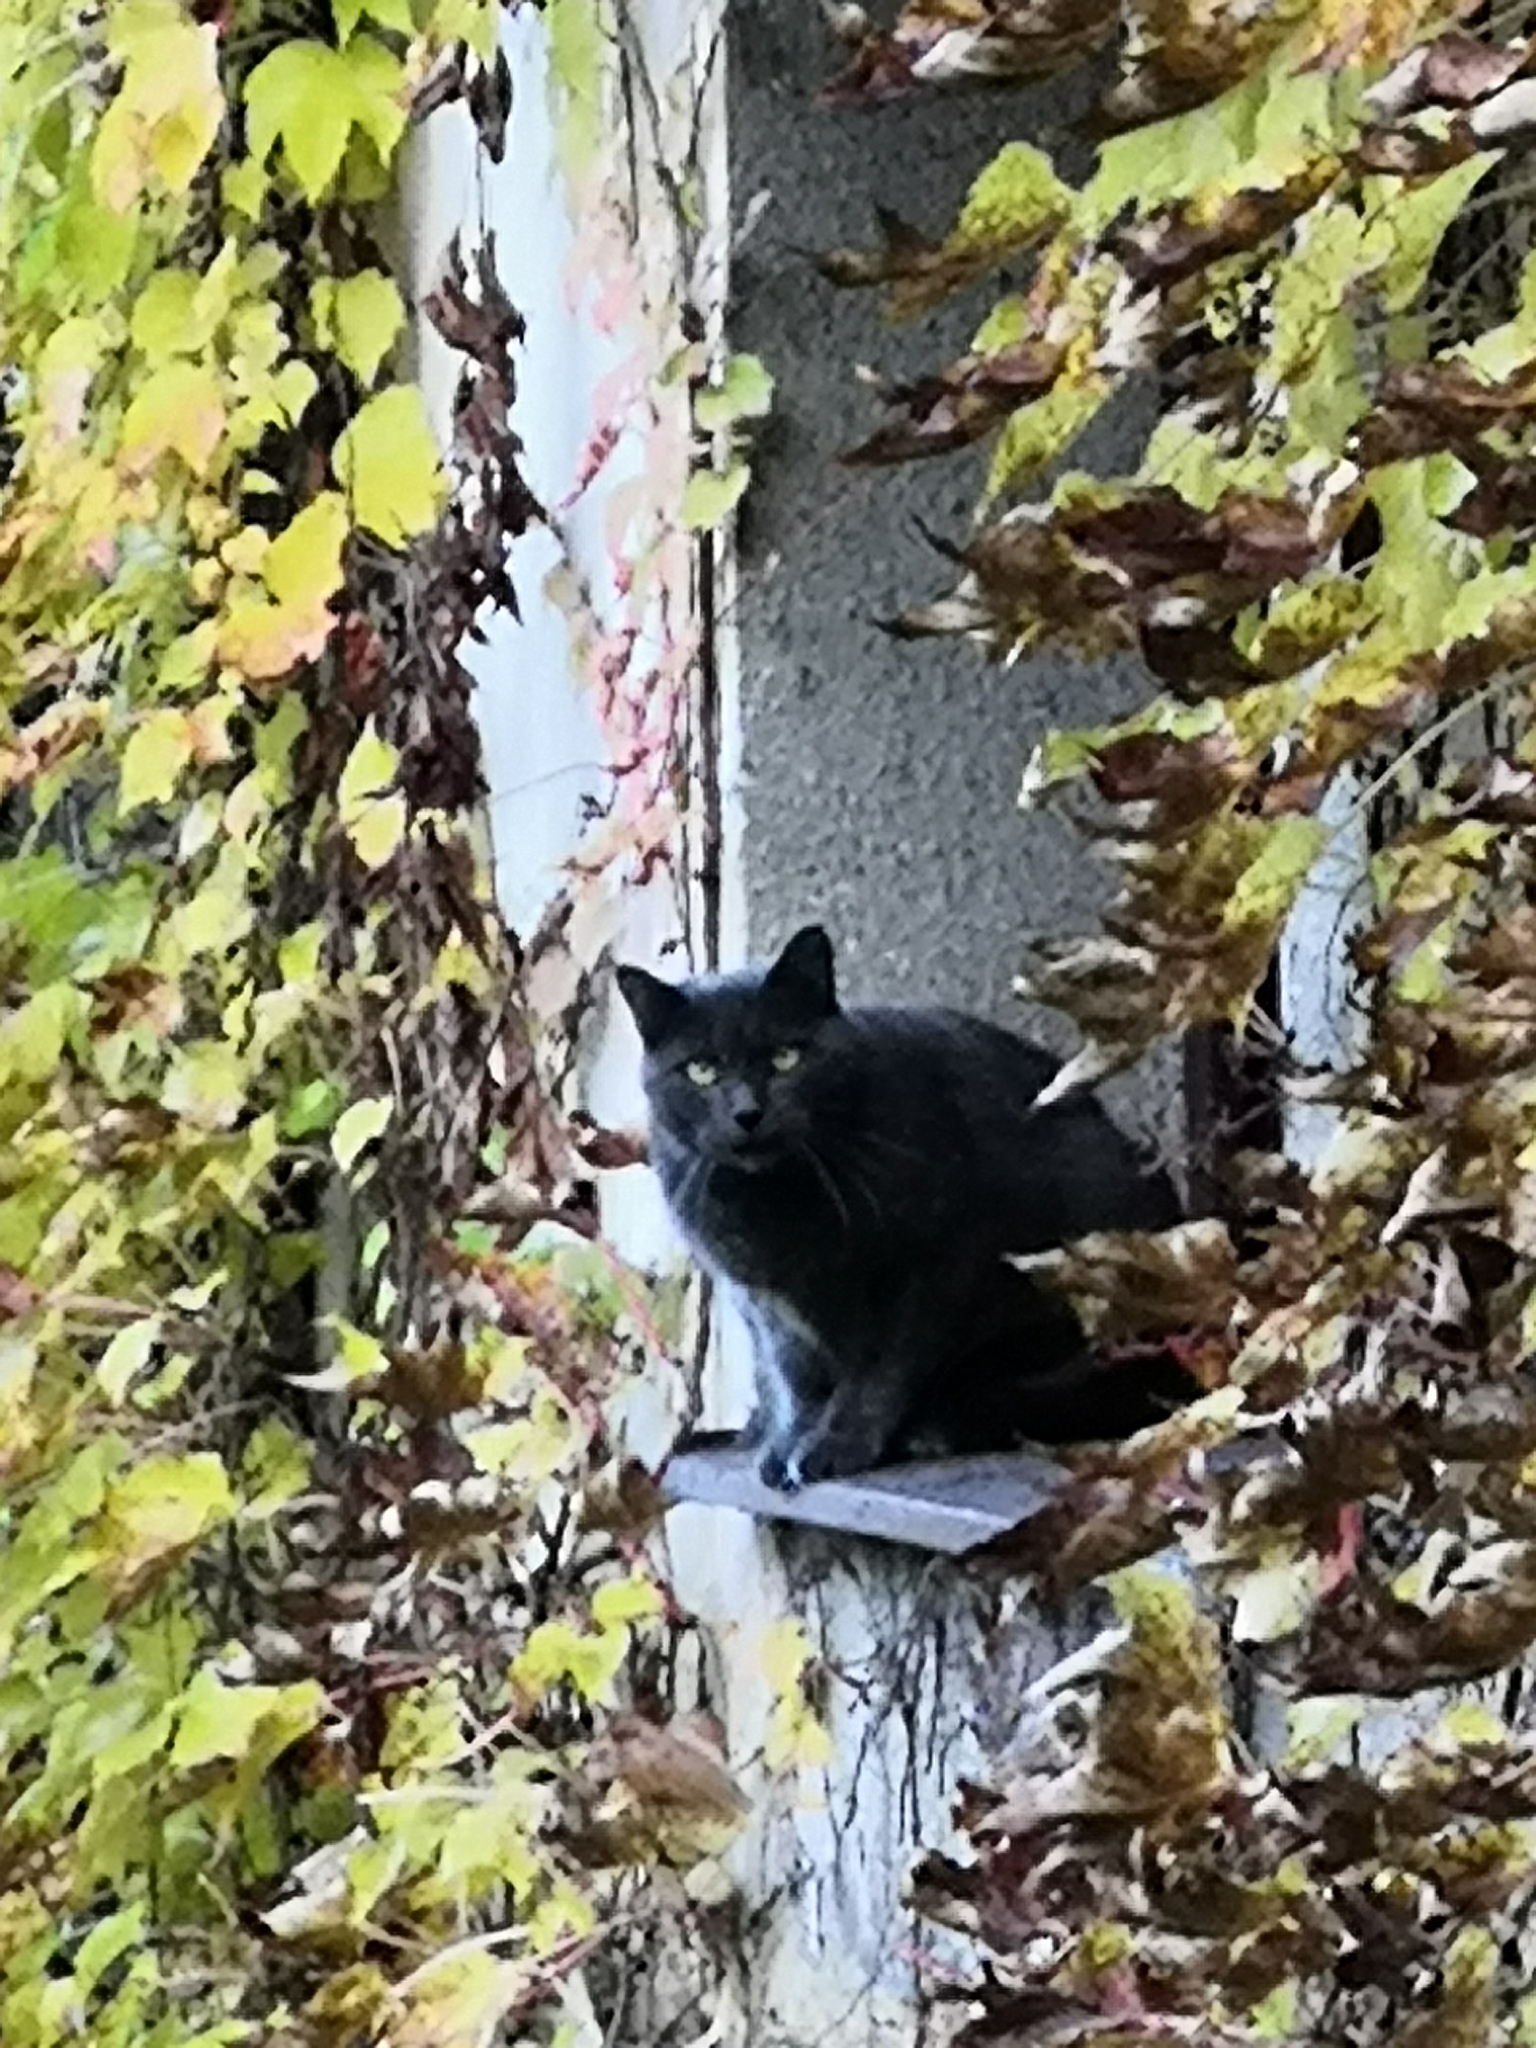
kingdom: Animalia
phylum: Chordata
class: Mammalia
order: Carnivora
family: Felidae
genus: Felis
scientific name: Felis catus
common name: Domestic cat
